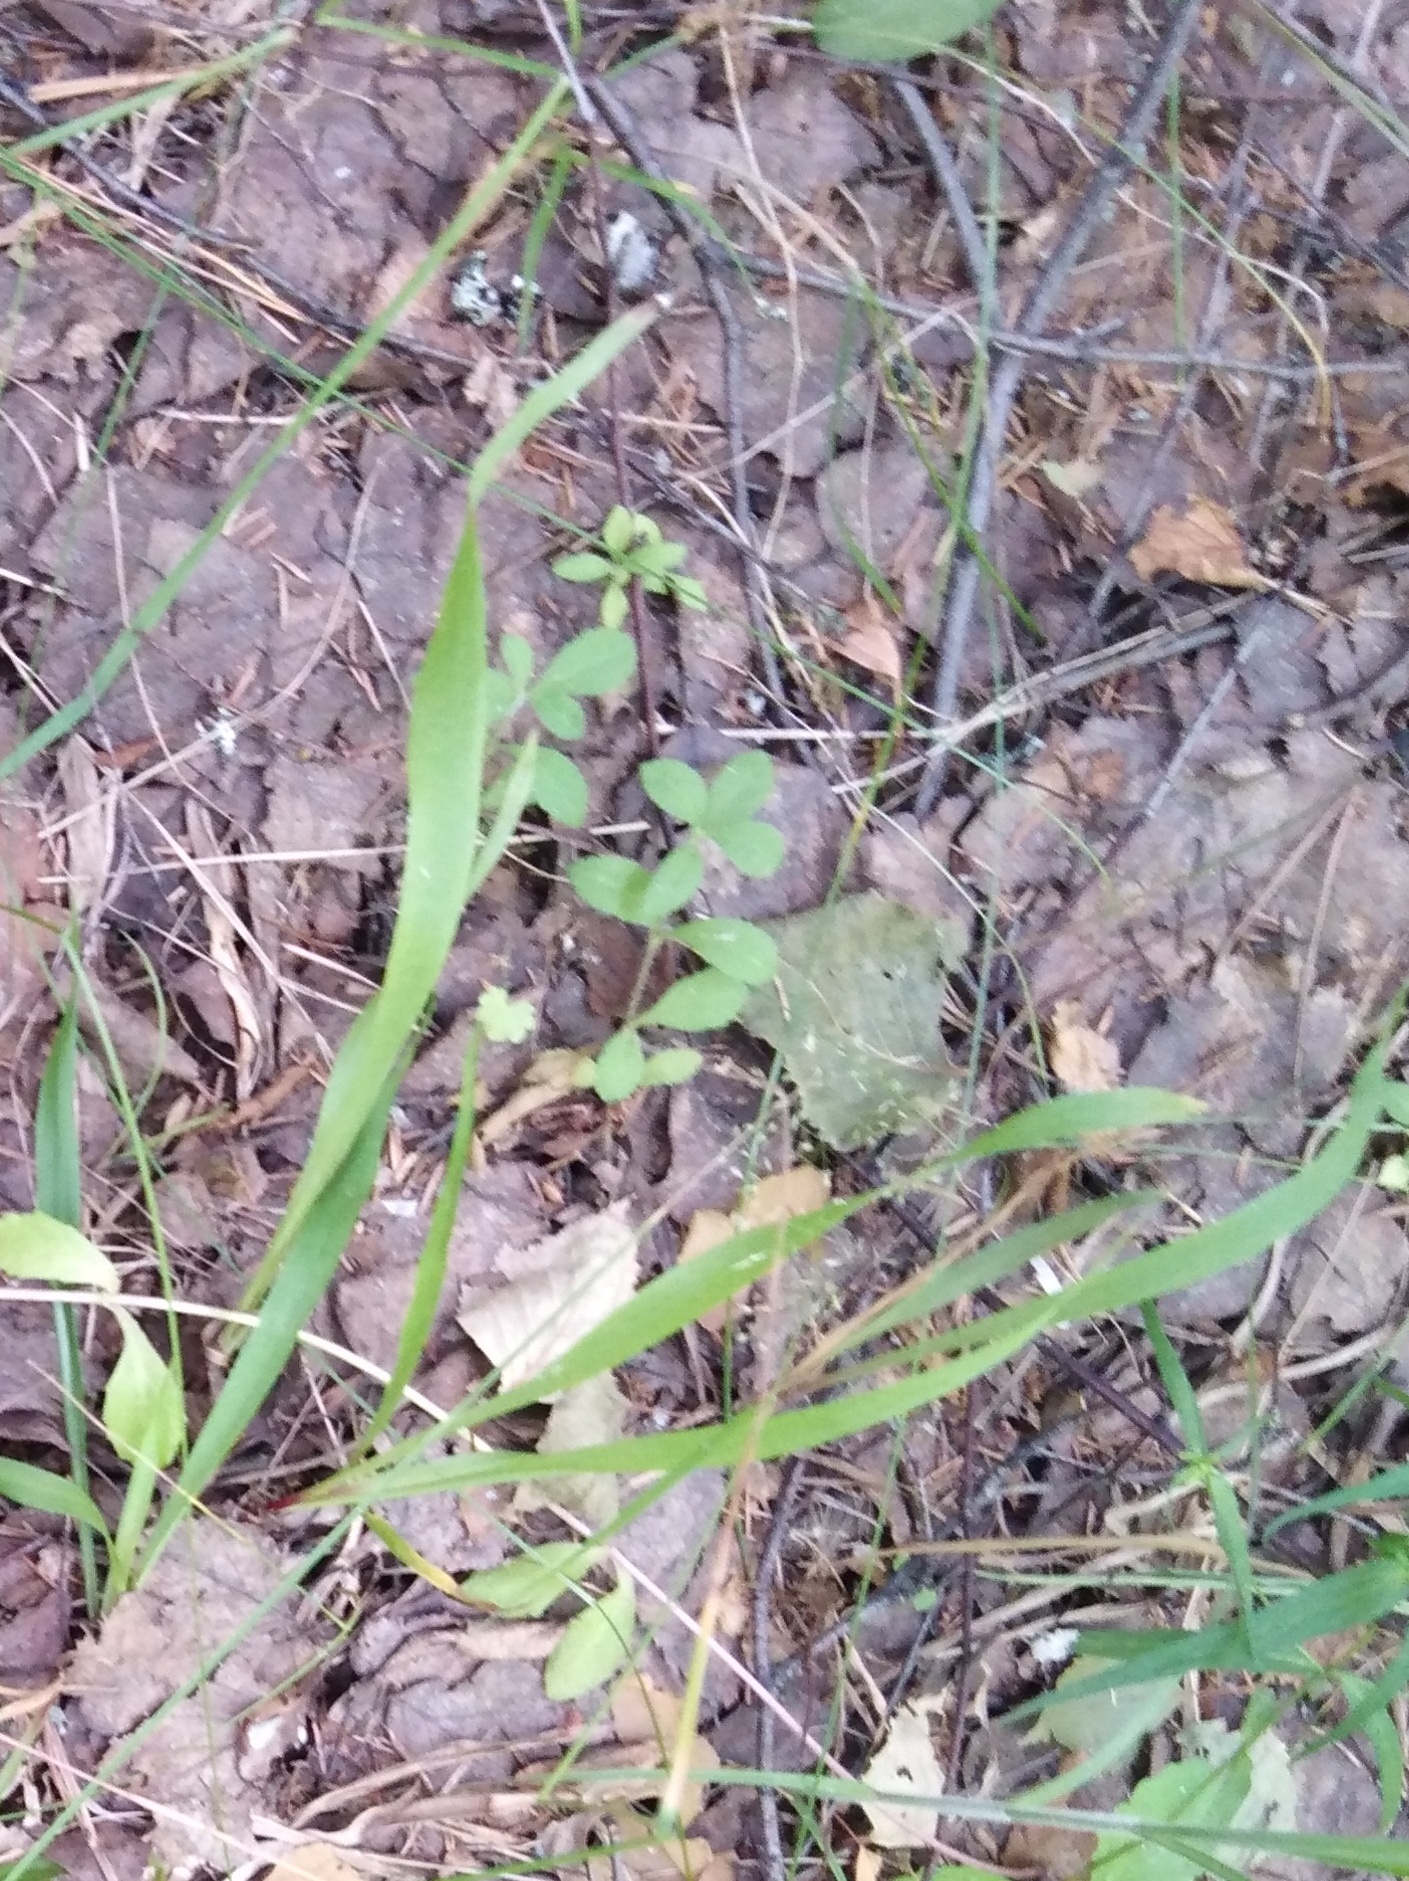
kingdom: Plantae
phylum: Tracheophyta
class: Liliopsida
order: Poales
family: Juncaceae
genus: Luzula
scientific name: Luzula pilosa
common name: Hairy wood-rush
